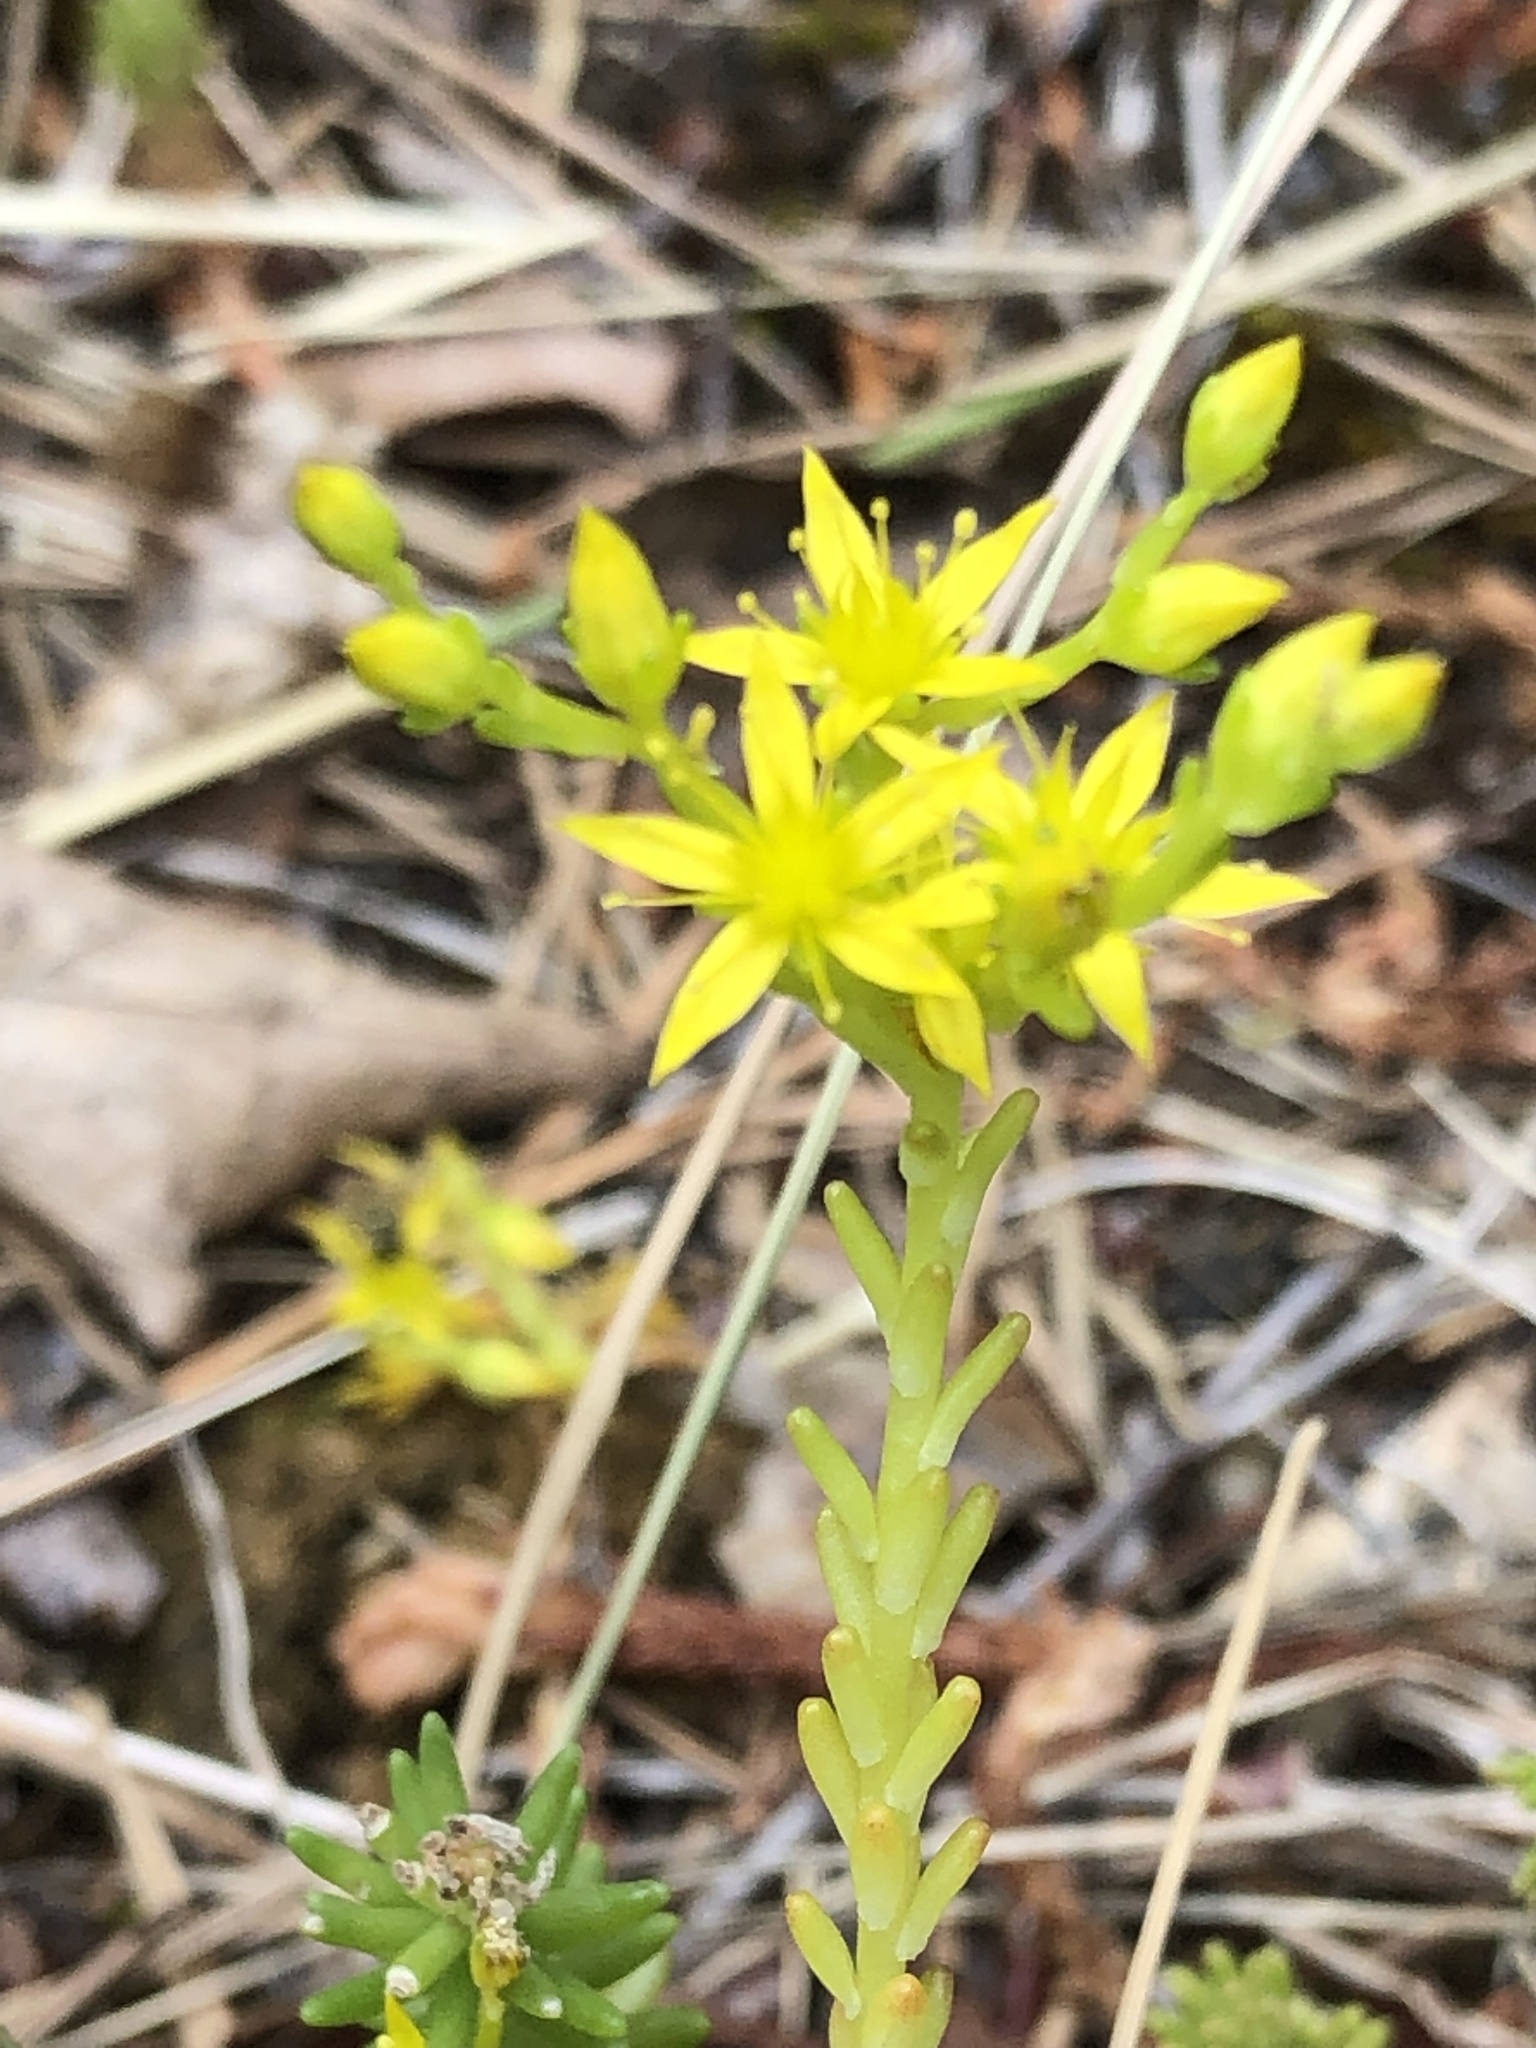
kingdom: Plantae
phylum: Tracheophyta
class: Magnoliopsida
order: Saxifragales
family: Crassulaceae
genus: Sedum
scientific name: Sedum sexangulare
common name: Tasteless stonecrop
